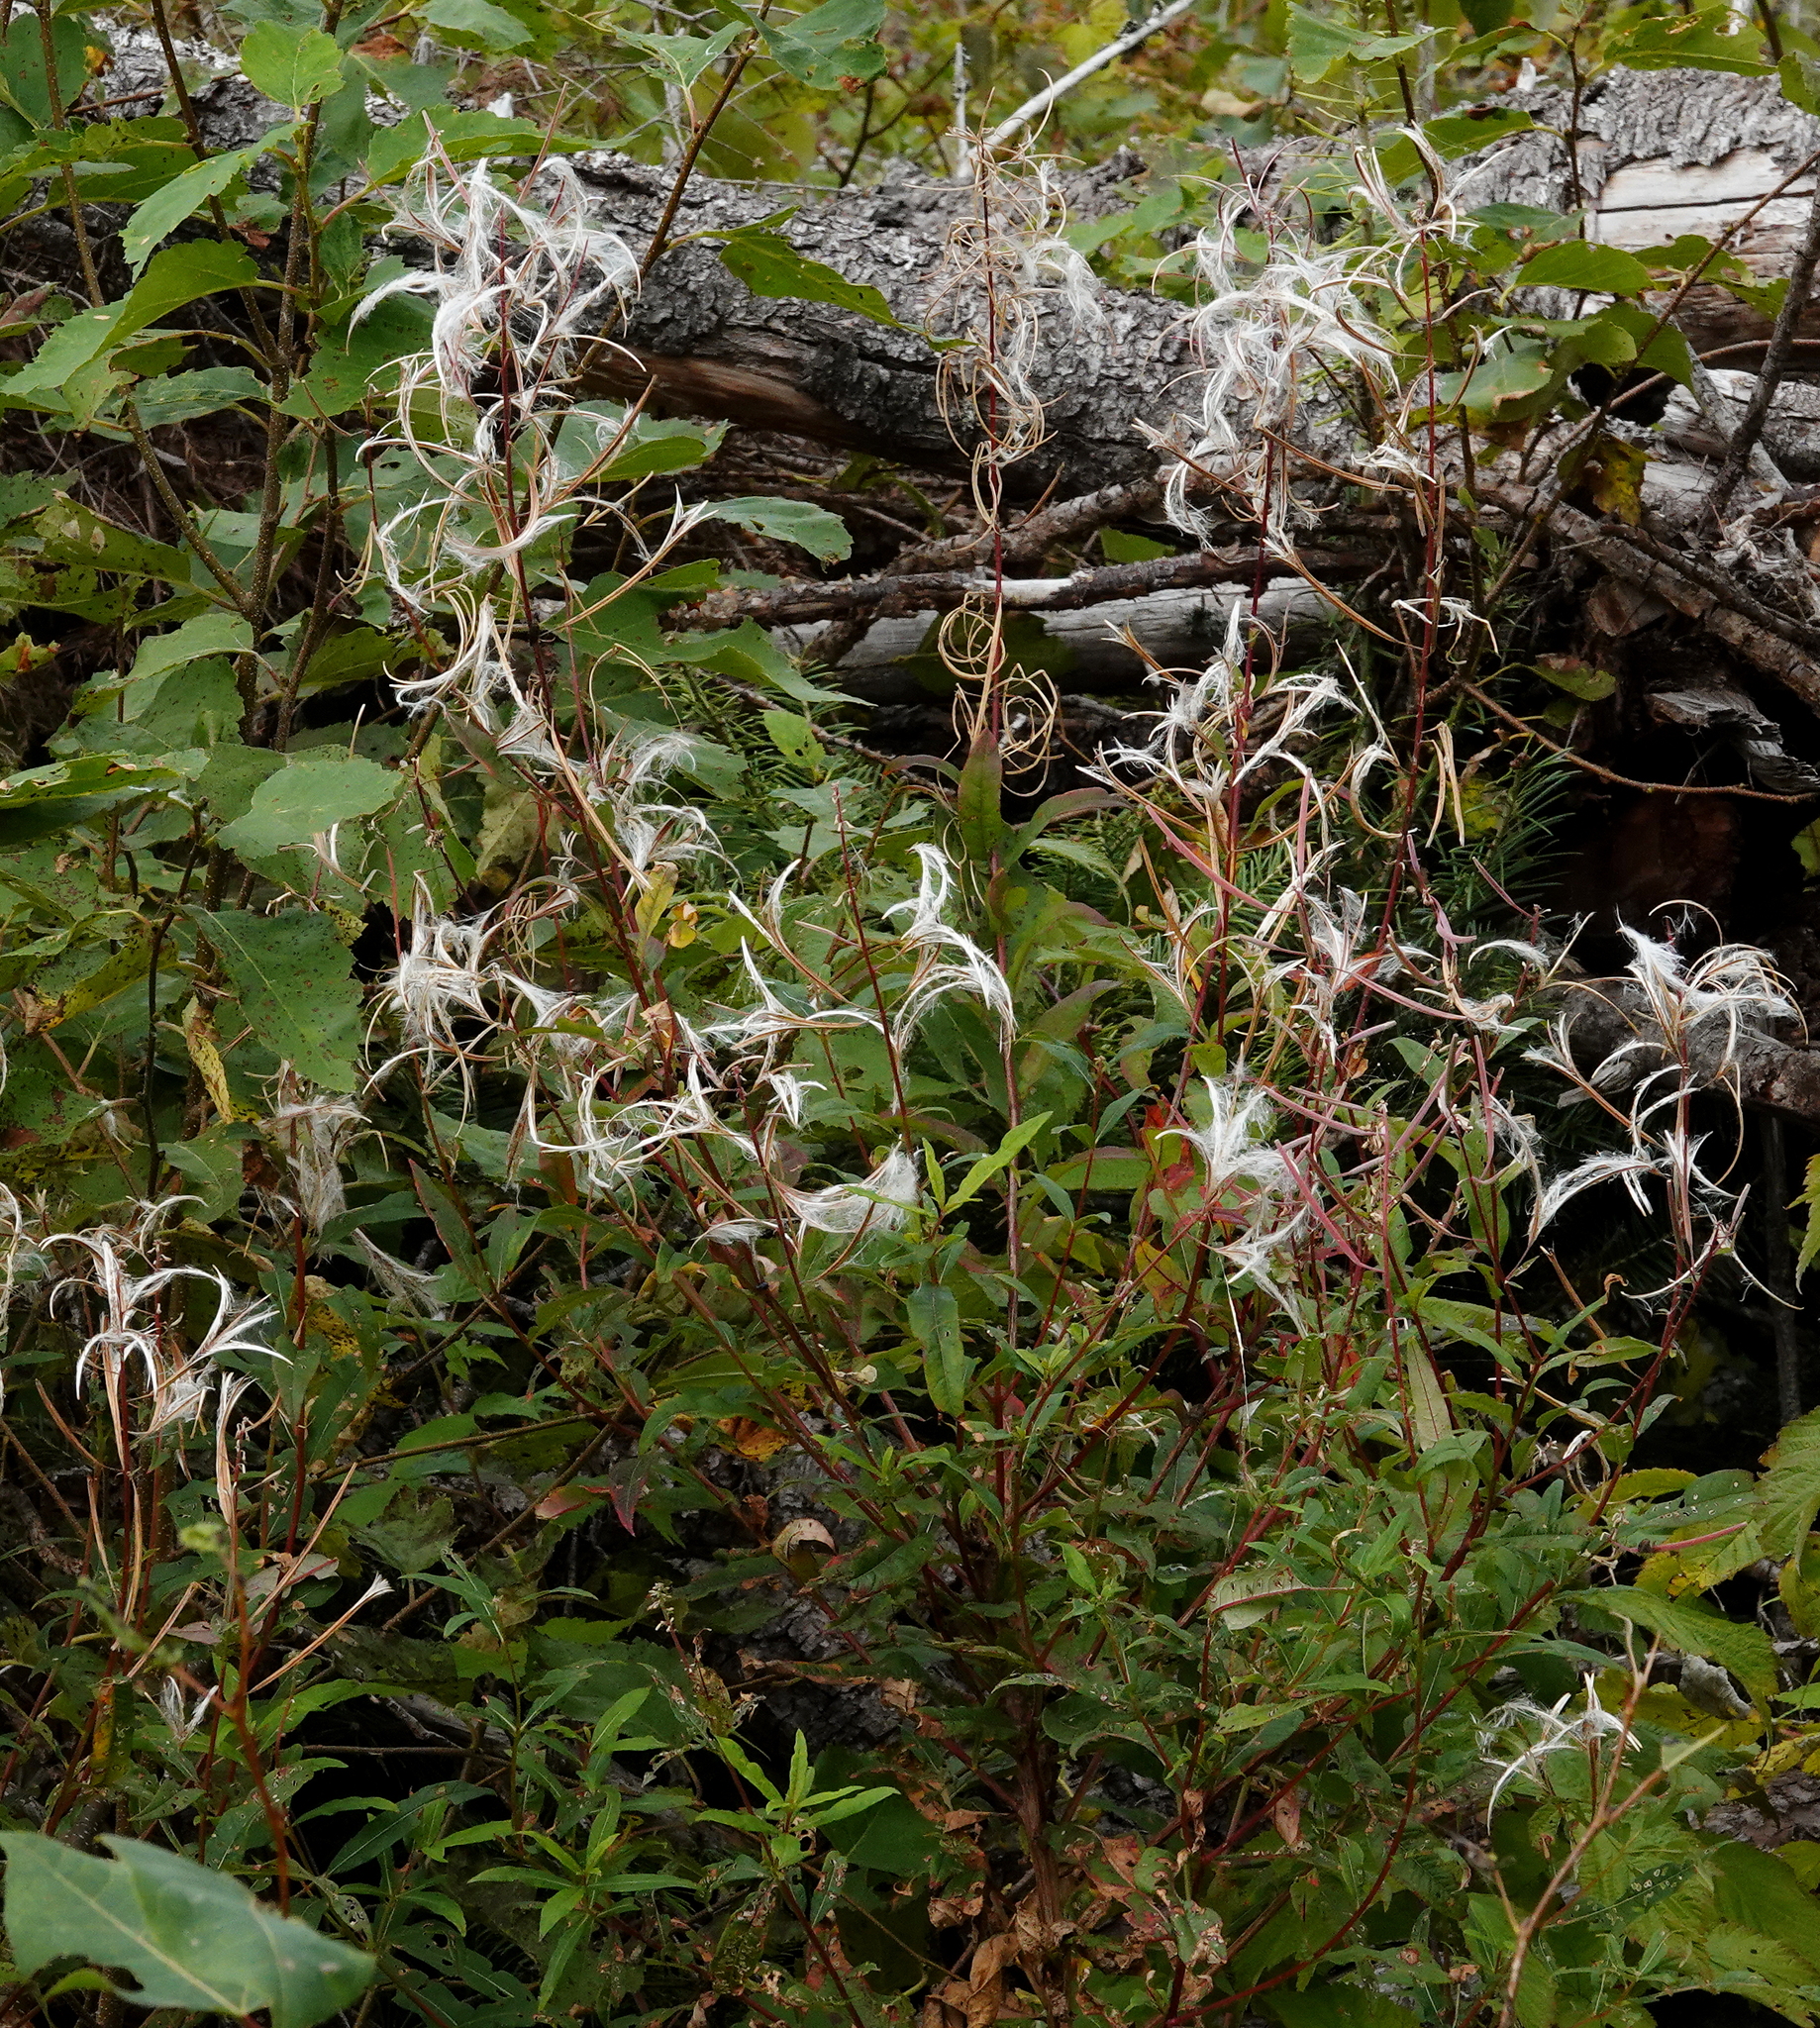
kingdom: Plantae
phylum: Tracheophyta
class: Magnoliopsida
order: Myrtales
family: Onagraceae
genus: Chamaenerion
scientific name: Chamaenerion angustifolium
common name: Fireweed
